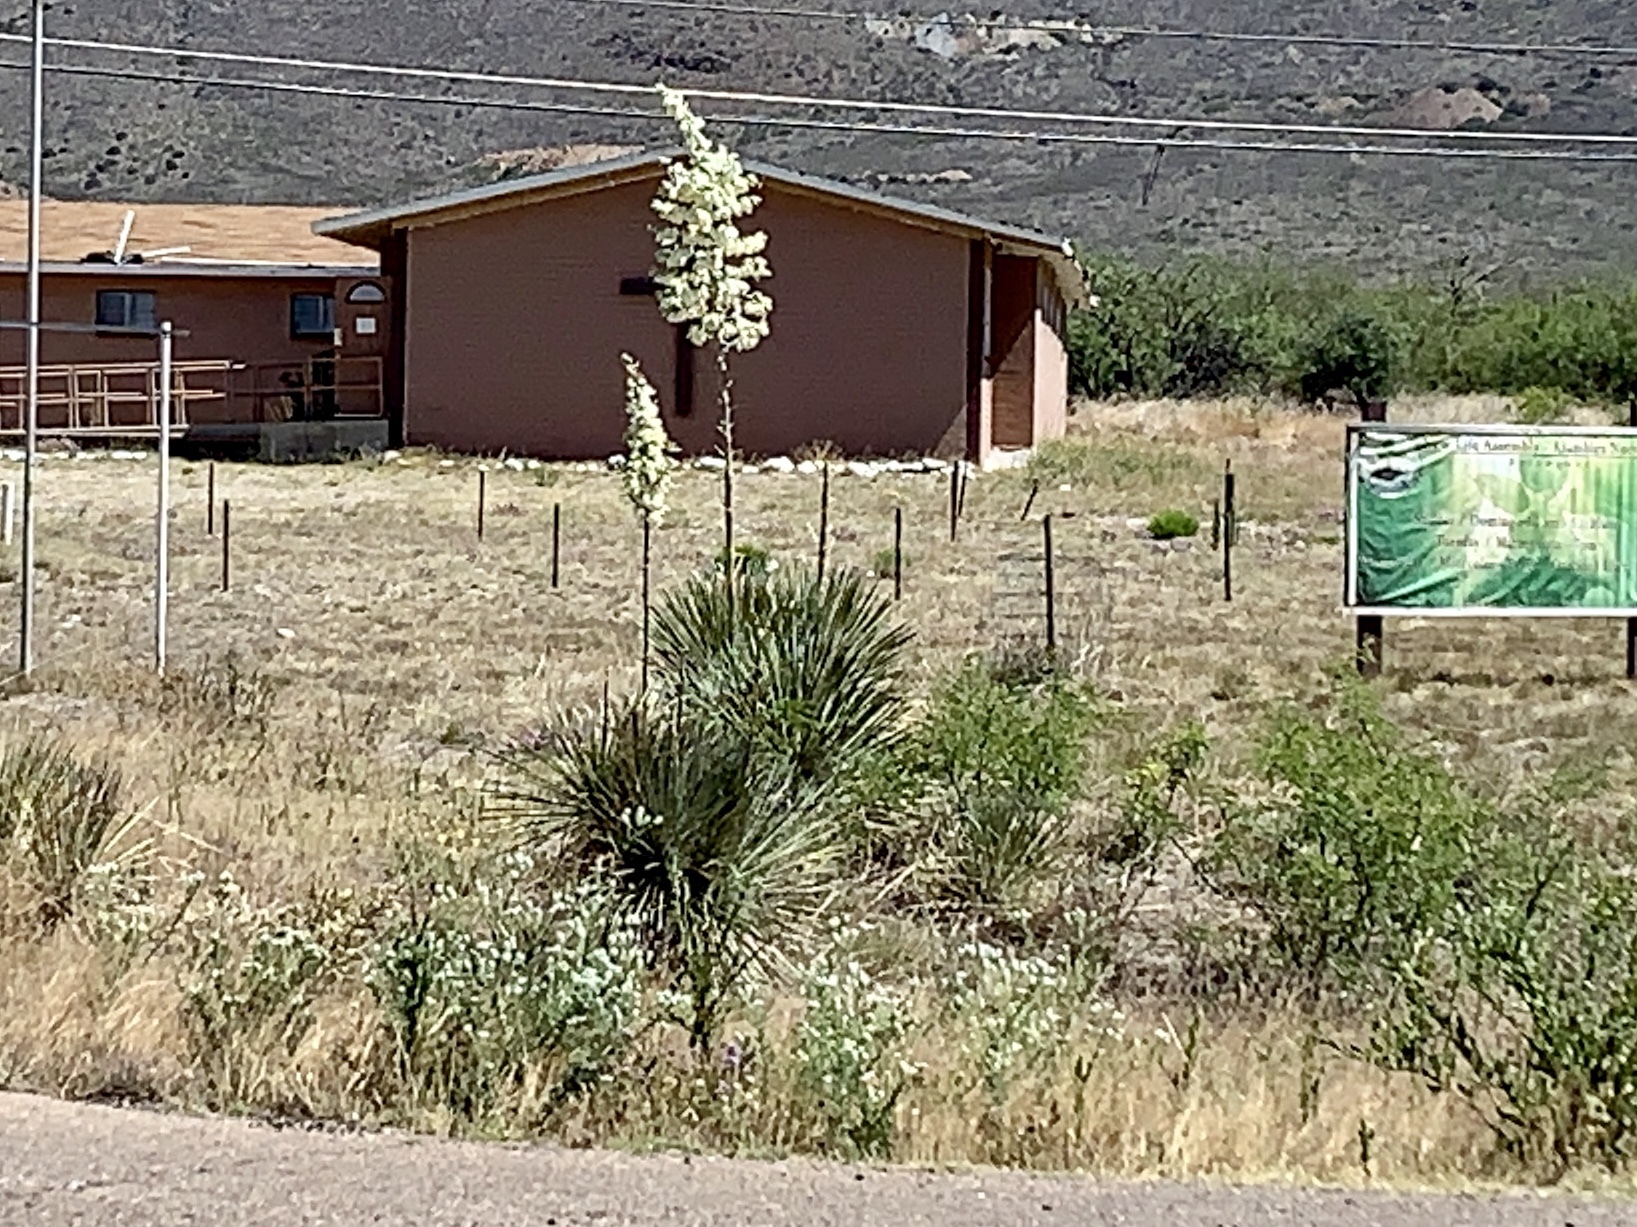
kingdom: Plantae
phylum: Tracheophyta
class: Liliopsida
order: Asparagales
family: Asparagaceae
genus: Yucca
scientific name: Yucca elata
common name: Palmella
